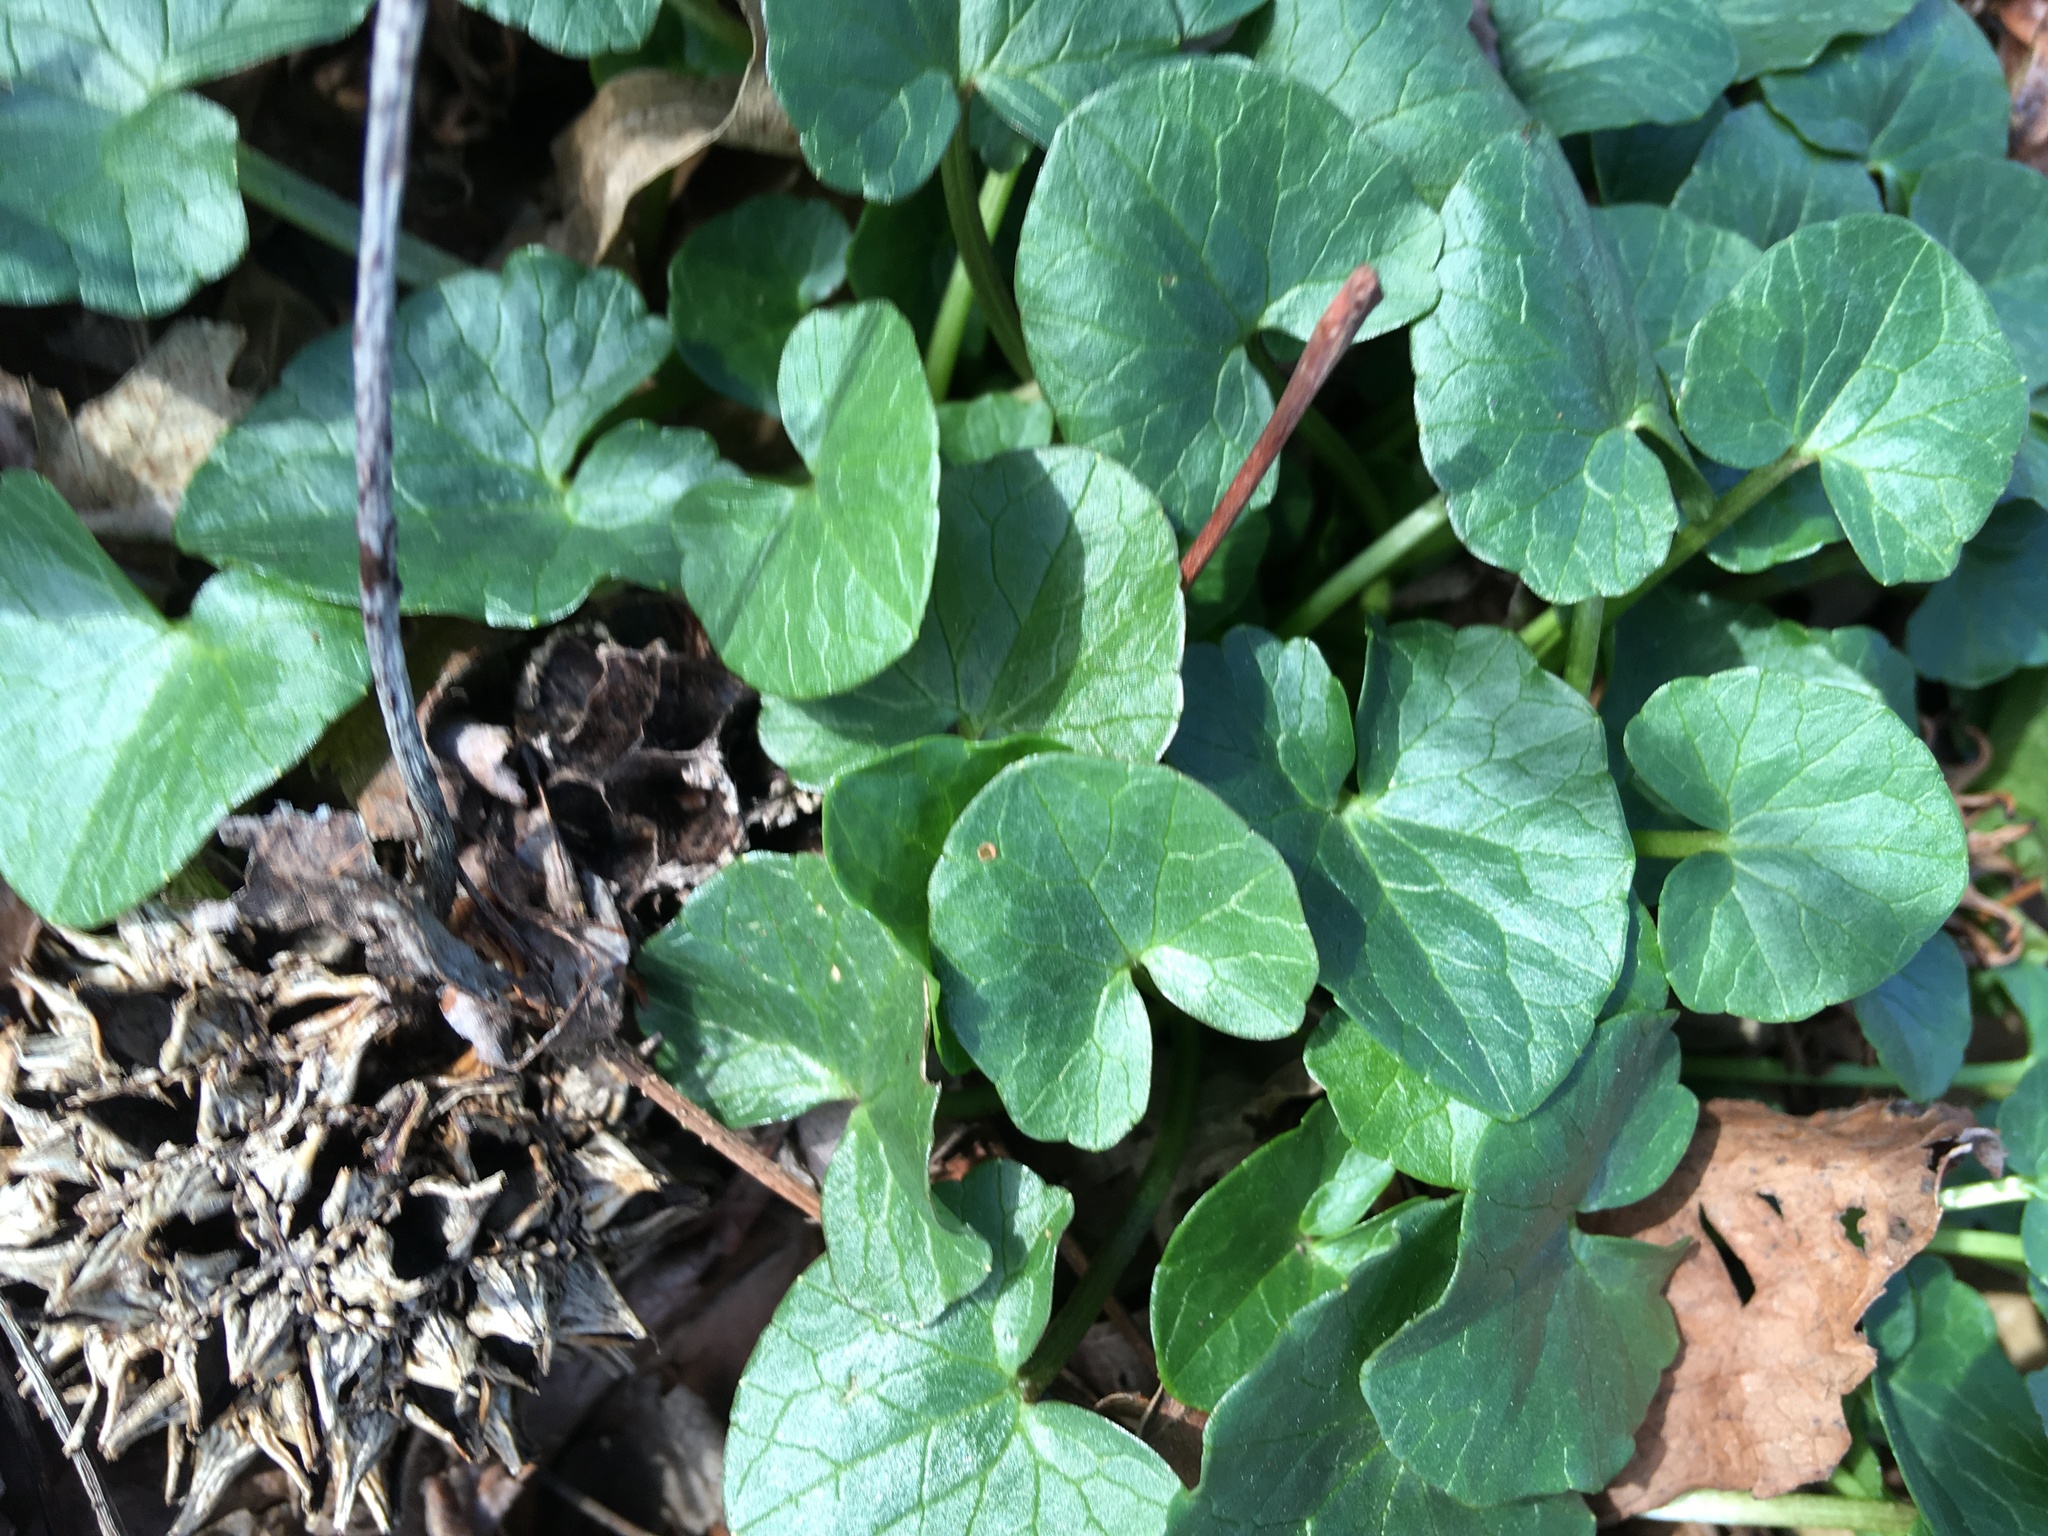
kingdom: Plantae
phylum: Tracheophyta
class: Magnoliopsida
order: Ranunculales
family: Ranunculaceae
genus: Ficaria
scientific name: Ficaria verna
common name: Lesser celandine
